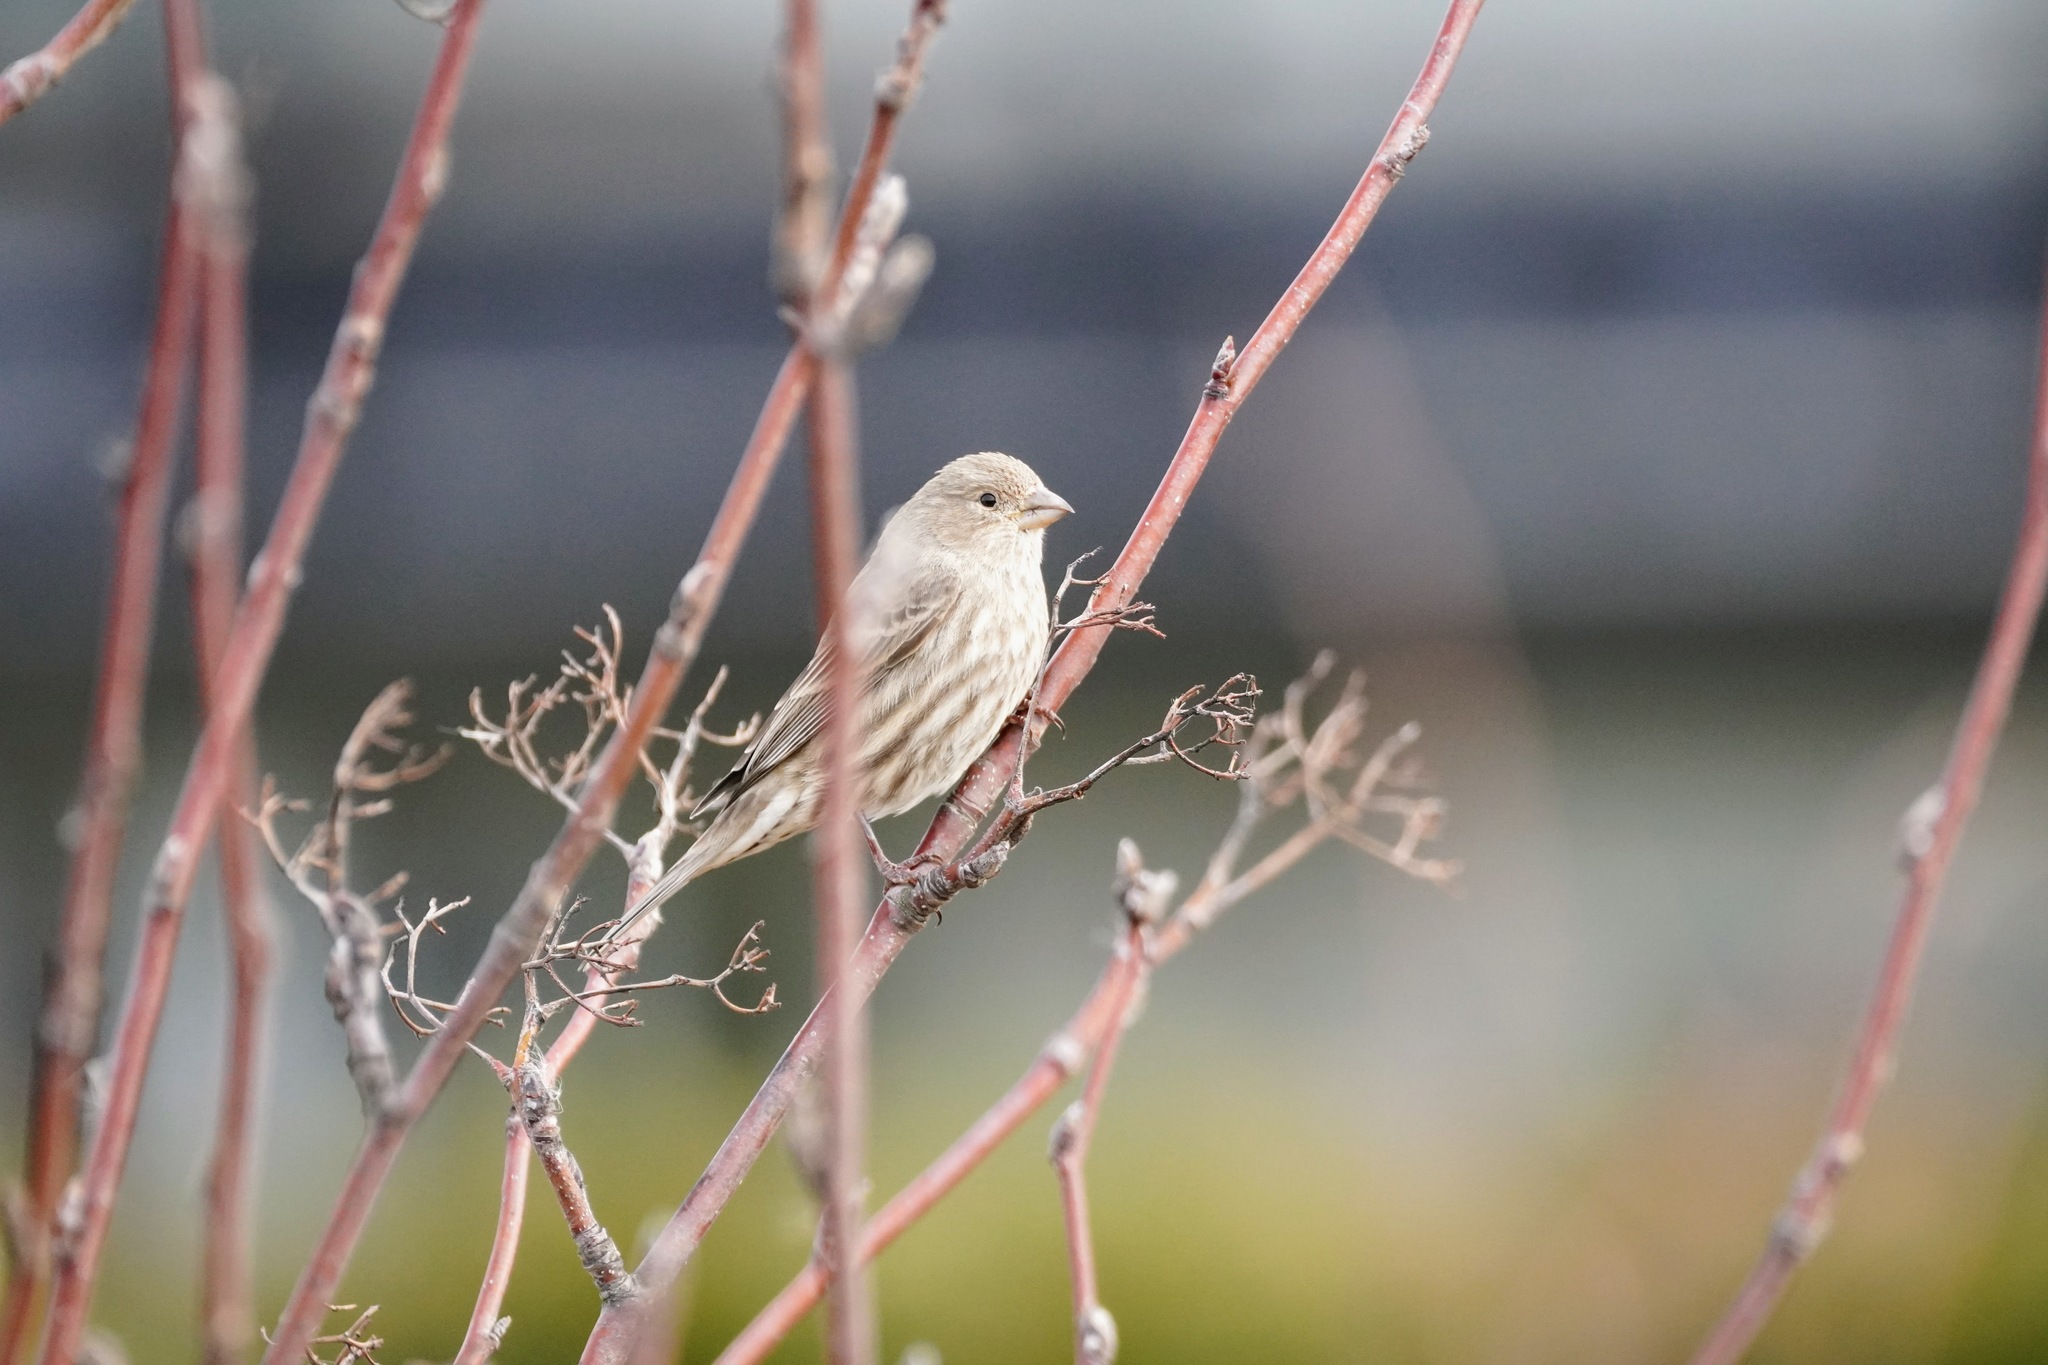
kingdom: Animalia
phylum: Chordata
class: Aves
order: Passeriformes
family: Fringillidae
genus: Haemorhous
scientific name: Haemorhous mexicanus
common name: House finch
